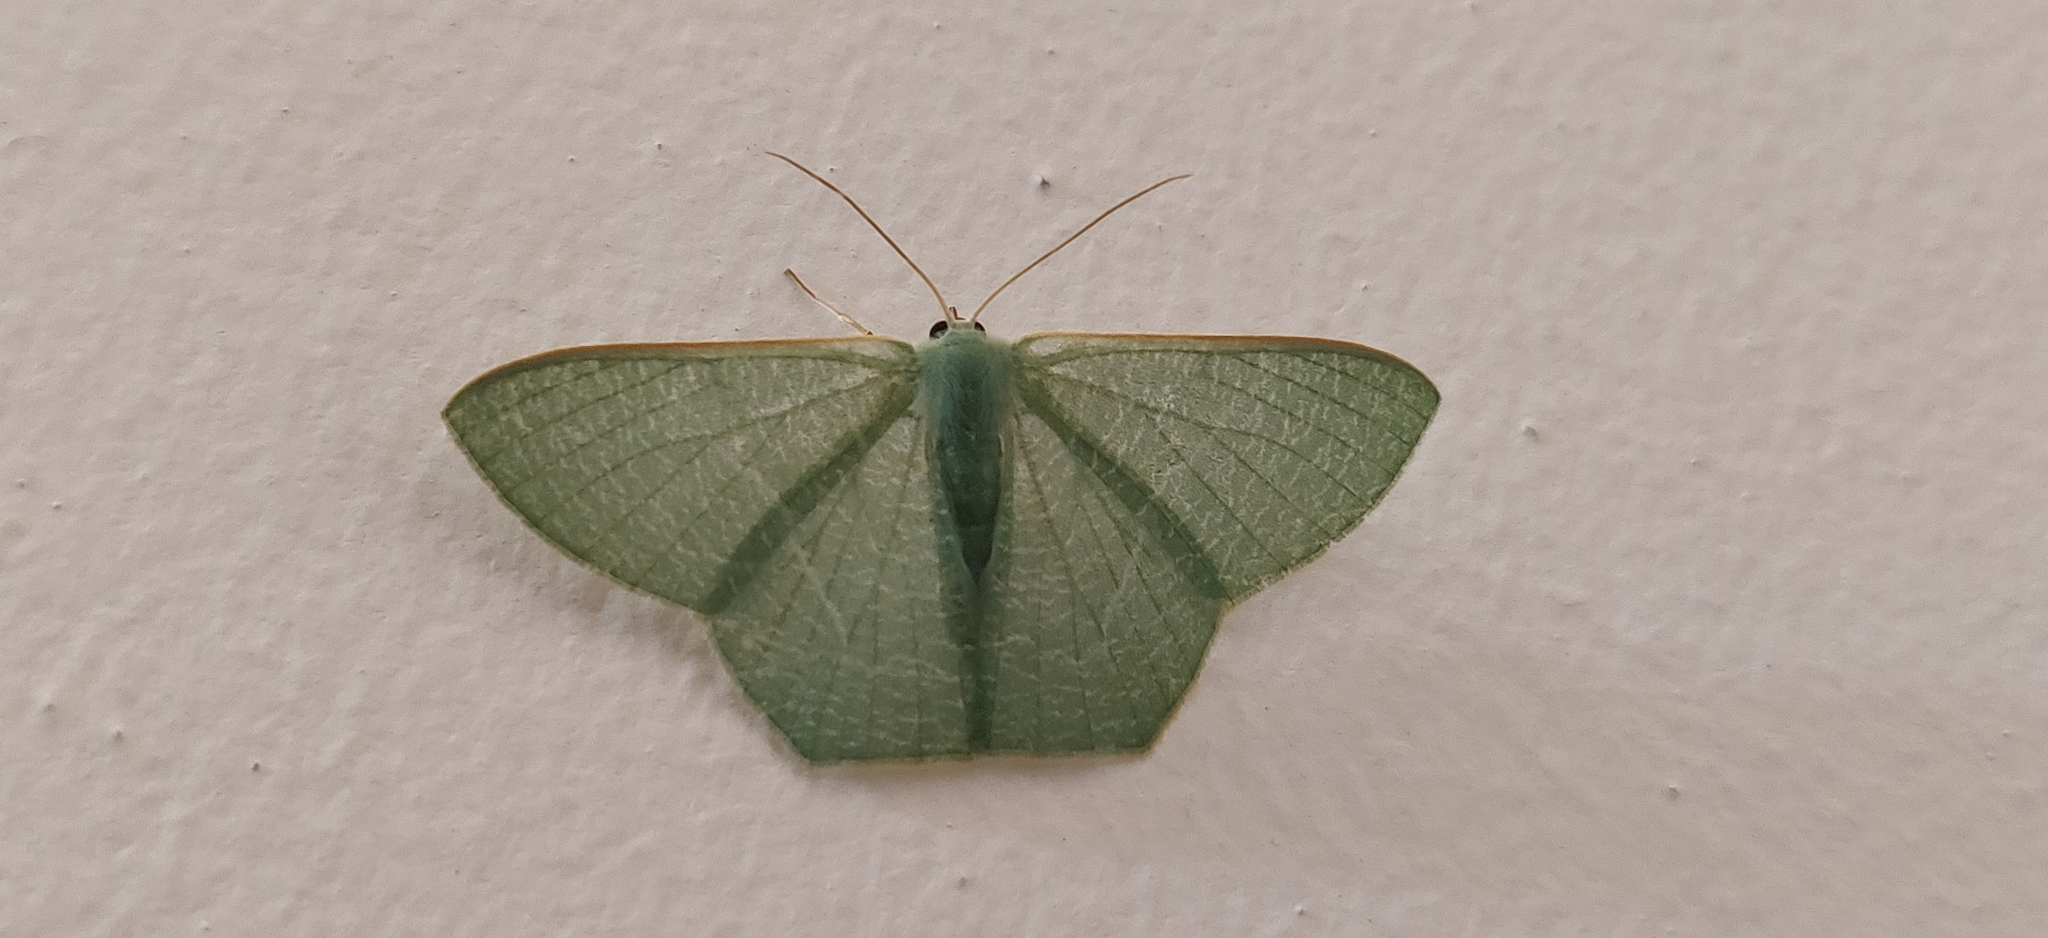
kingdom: Animalia
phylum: Arthropoda
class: Insecta
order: Lepidoptera
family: Geometridae
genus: Pelagodes
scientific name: Pelagodes antiquadraria
